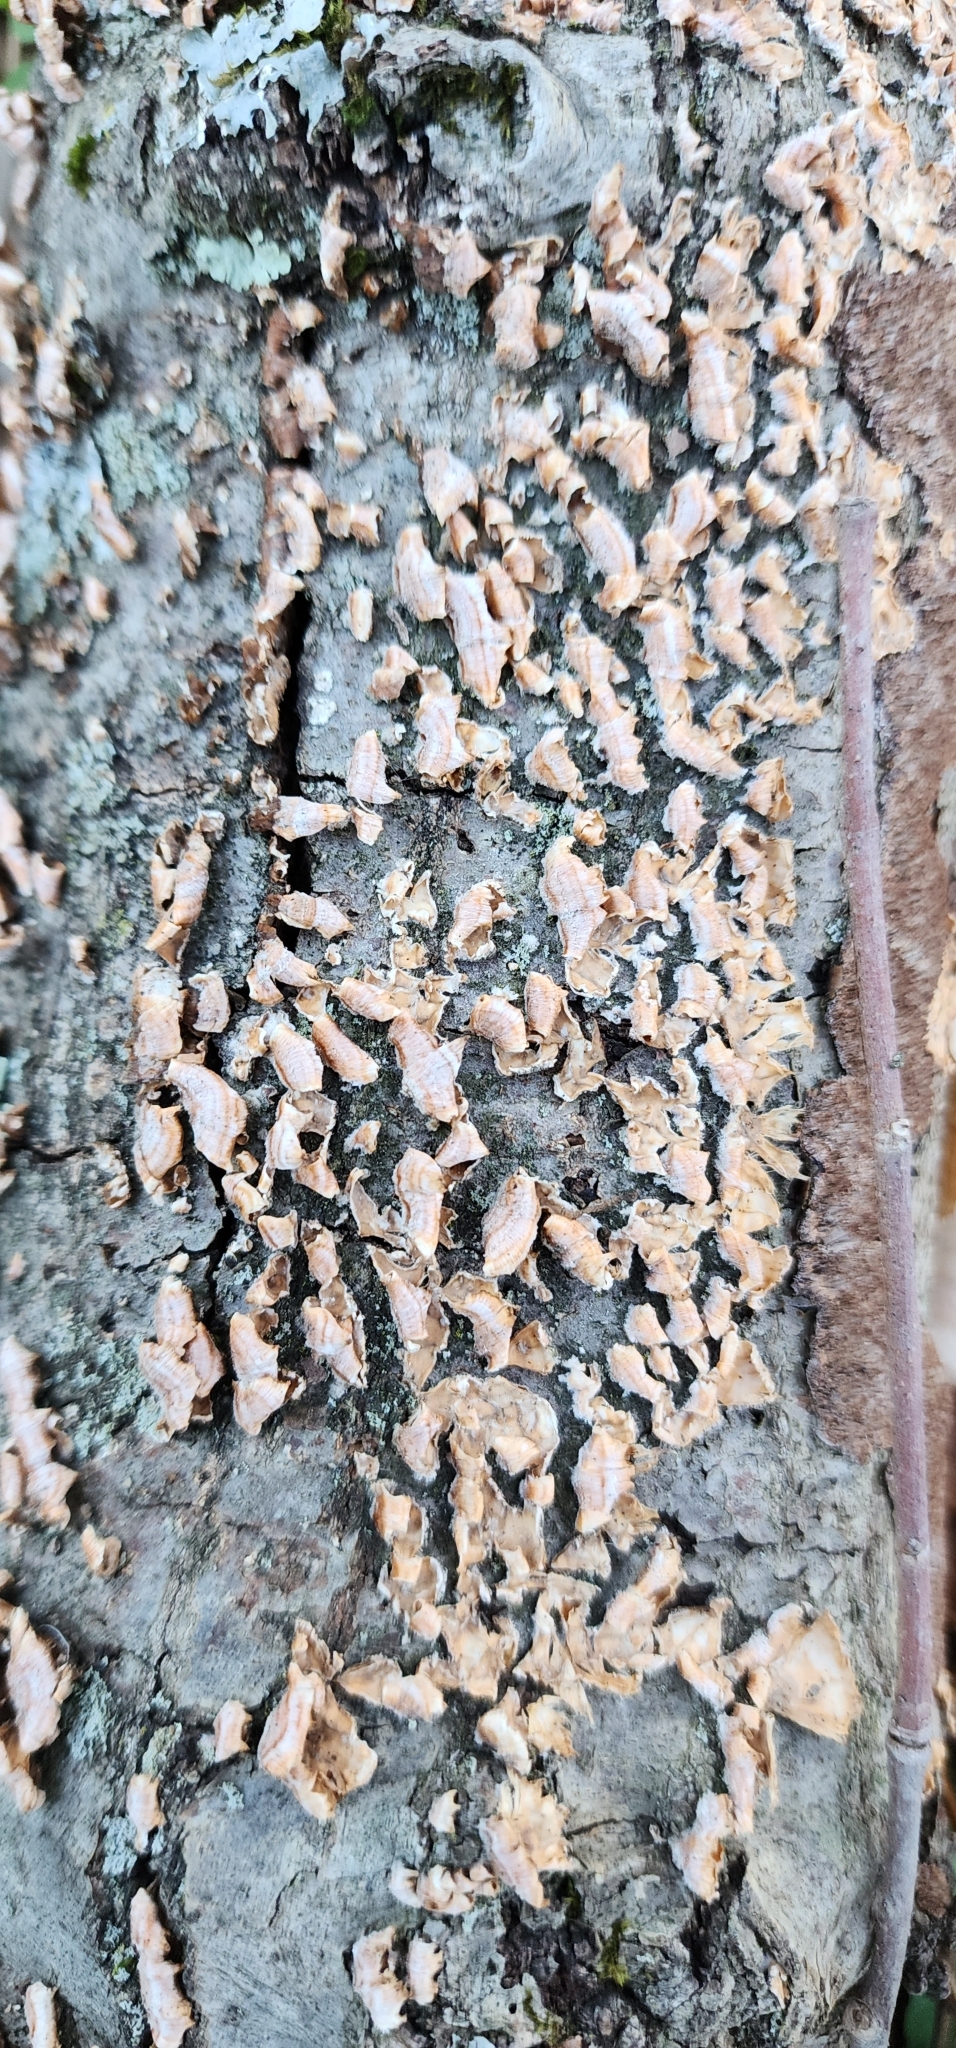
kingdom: Fungi
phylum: Basidiomycota
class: Agaricomycetes
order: Russulales
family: Stereaceae
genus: Stereum
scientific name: Stereum complicatum
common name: Crowded parchment
